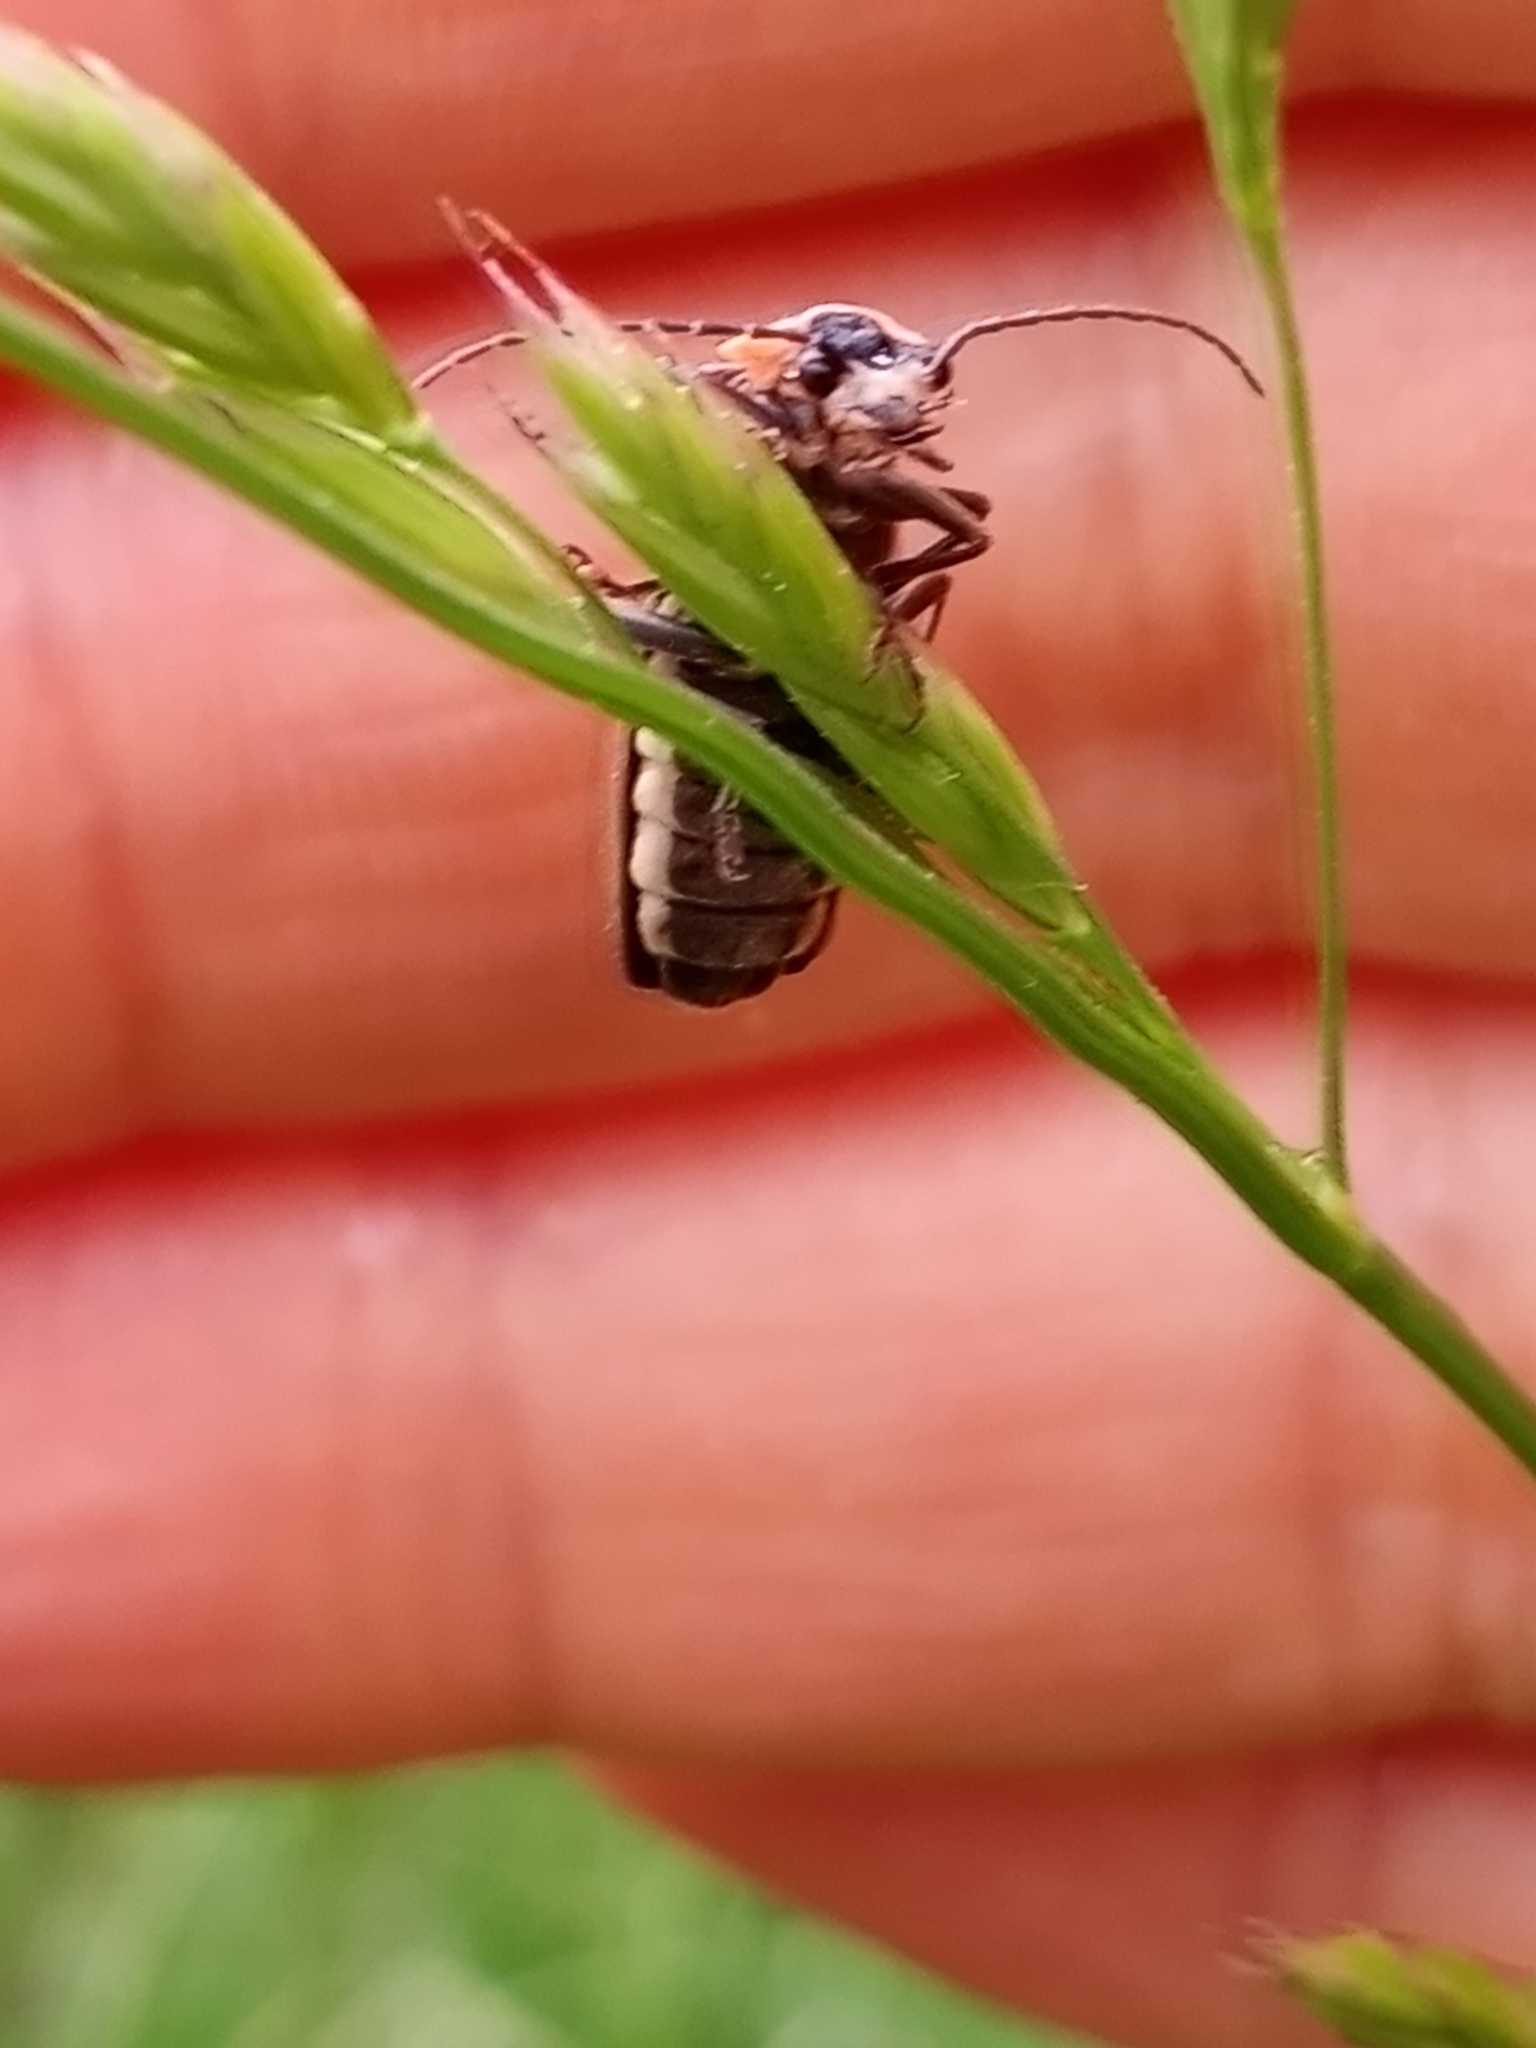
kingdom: Animalia
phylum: Arthropoda
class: Insecta
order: Coleoptera
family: Cantharidae
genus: Podabrus
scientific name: Podabrus brevicollis
